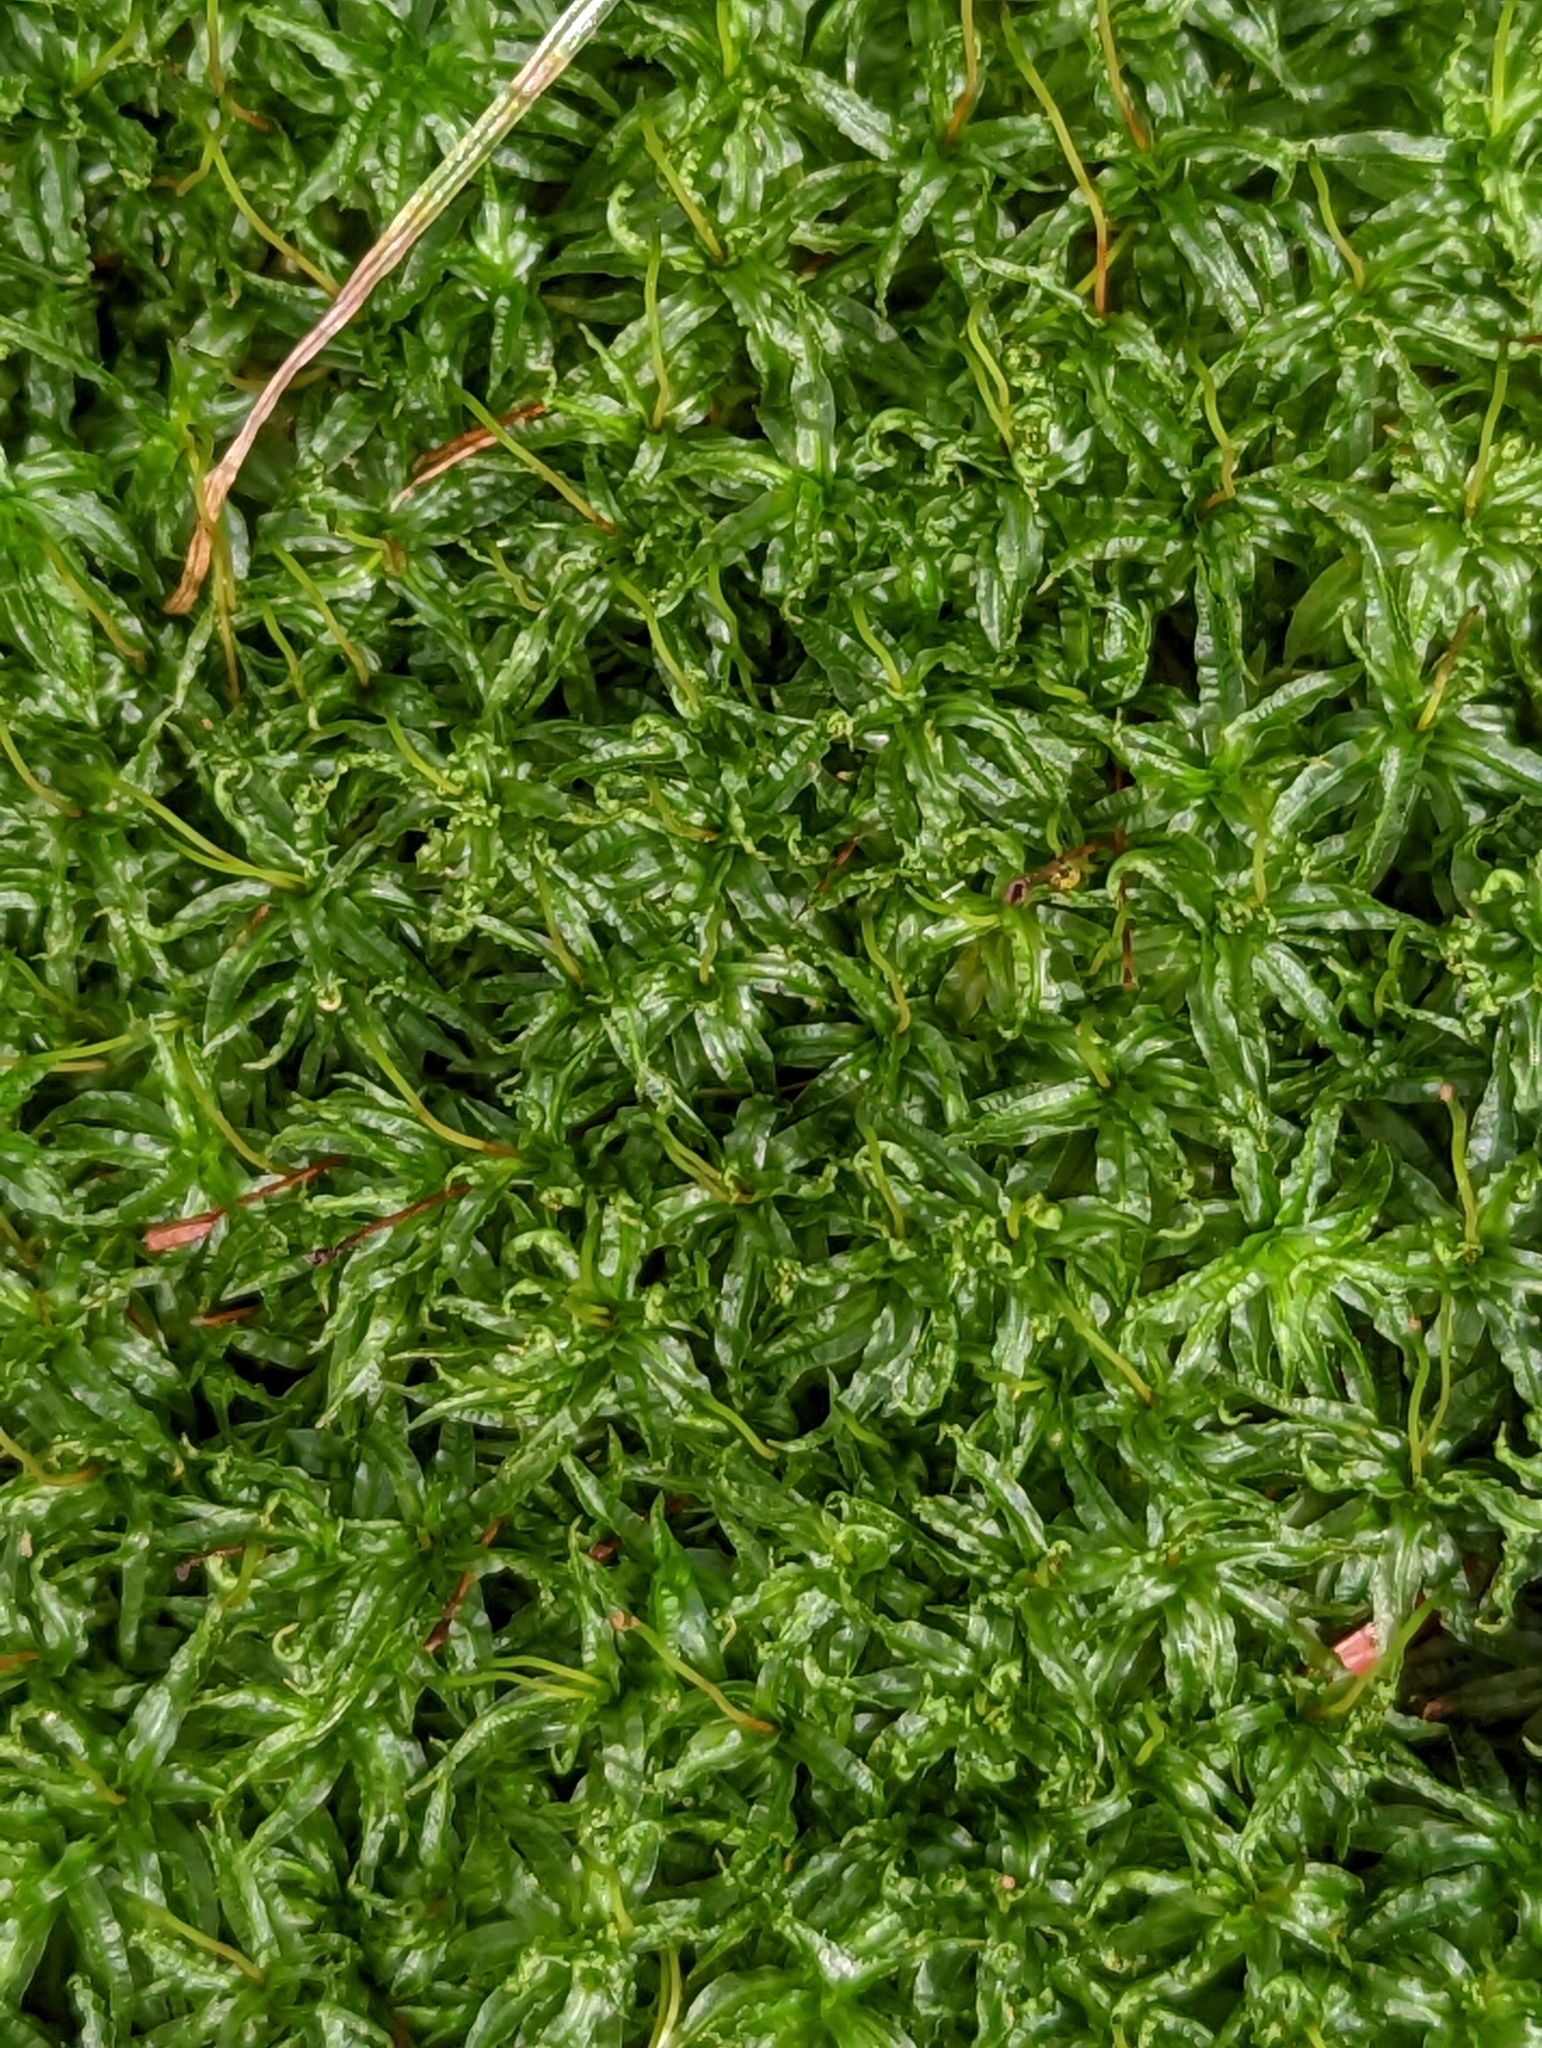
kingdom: Plantae
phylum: Bryophyta
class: Polytrichopsida
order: Polytrichales
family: Polytrichaceae
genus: Atrichum
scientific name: Atrichum undulatum
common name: Common smoothcap
